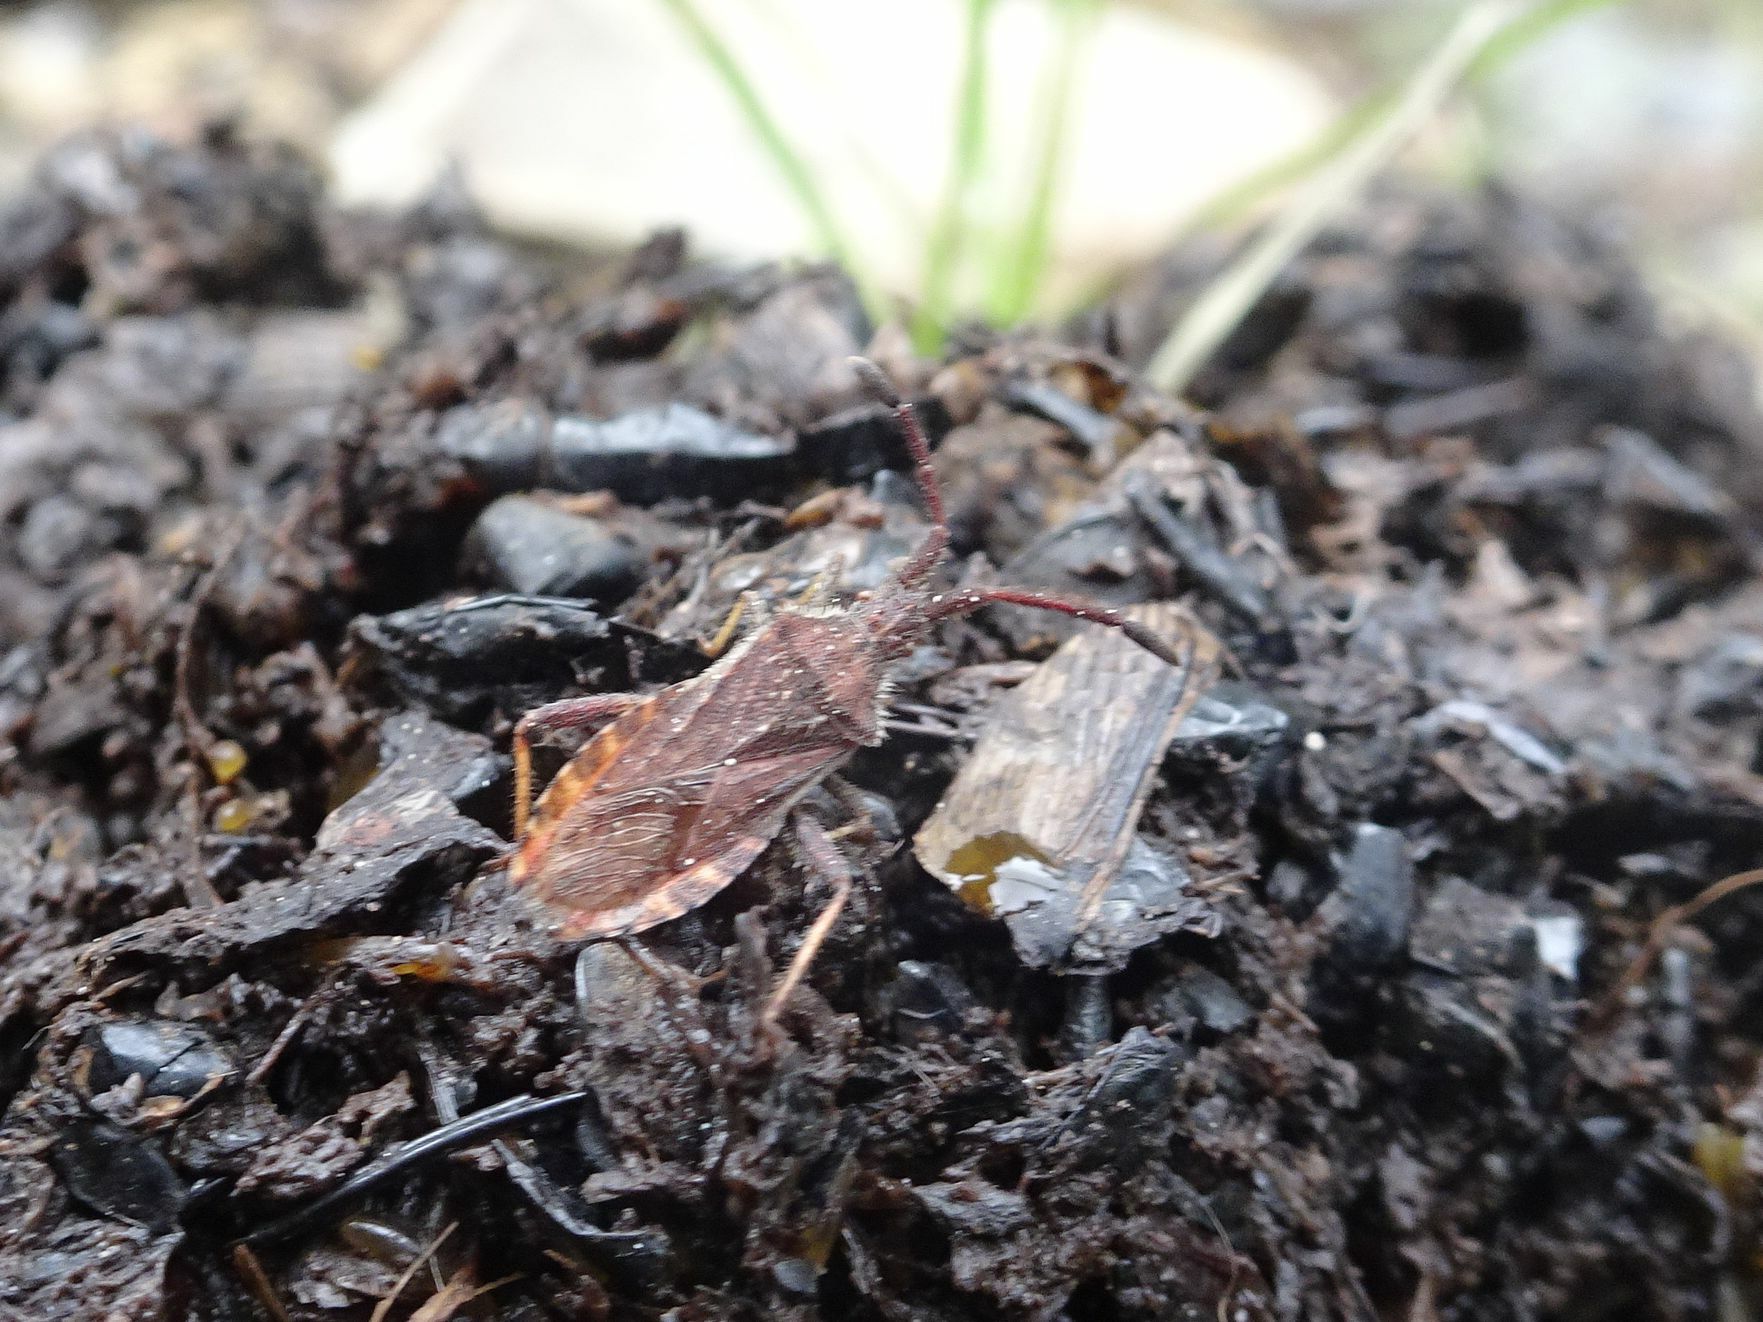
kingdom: Animalia
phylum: Arthropoda
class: Insecta
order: Hemiptera
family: Coreidae
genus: Coriomeris
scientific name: Coriomeris denticulatus
